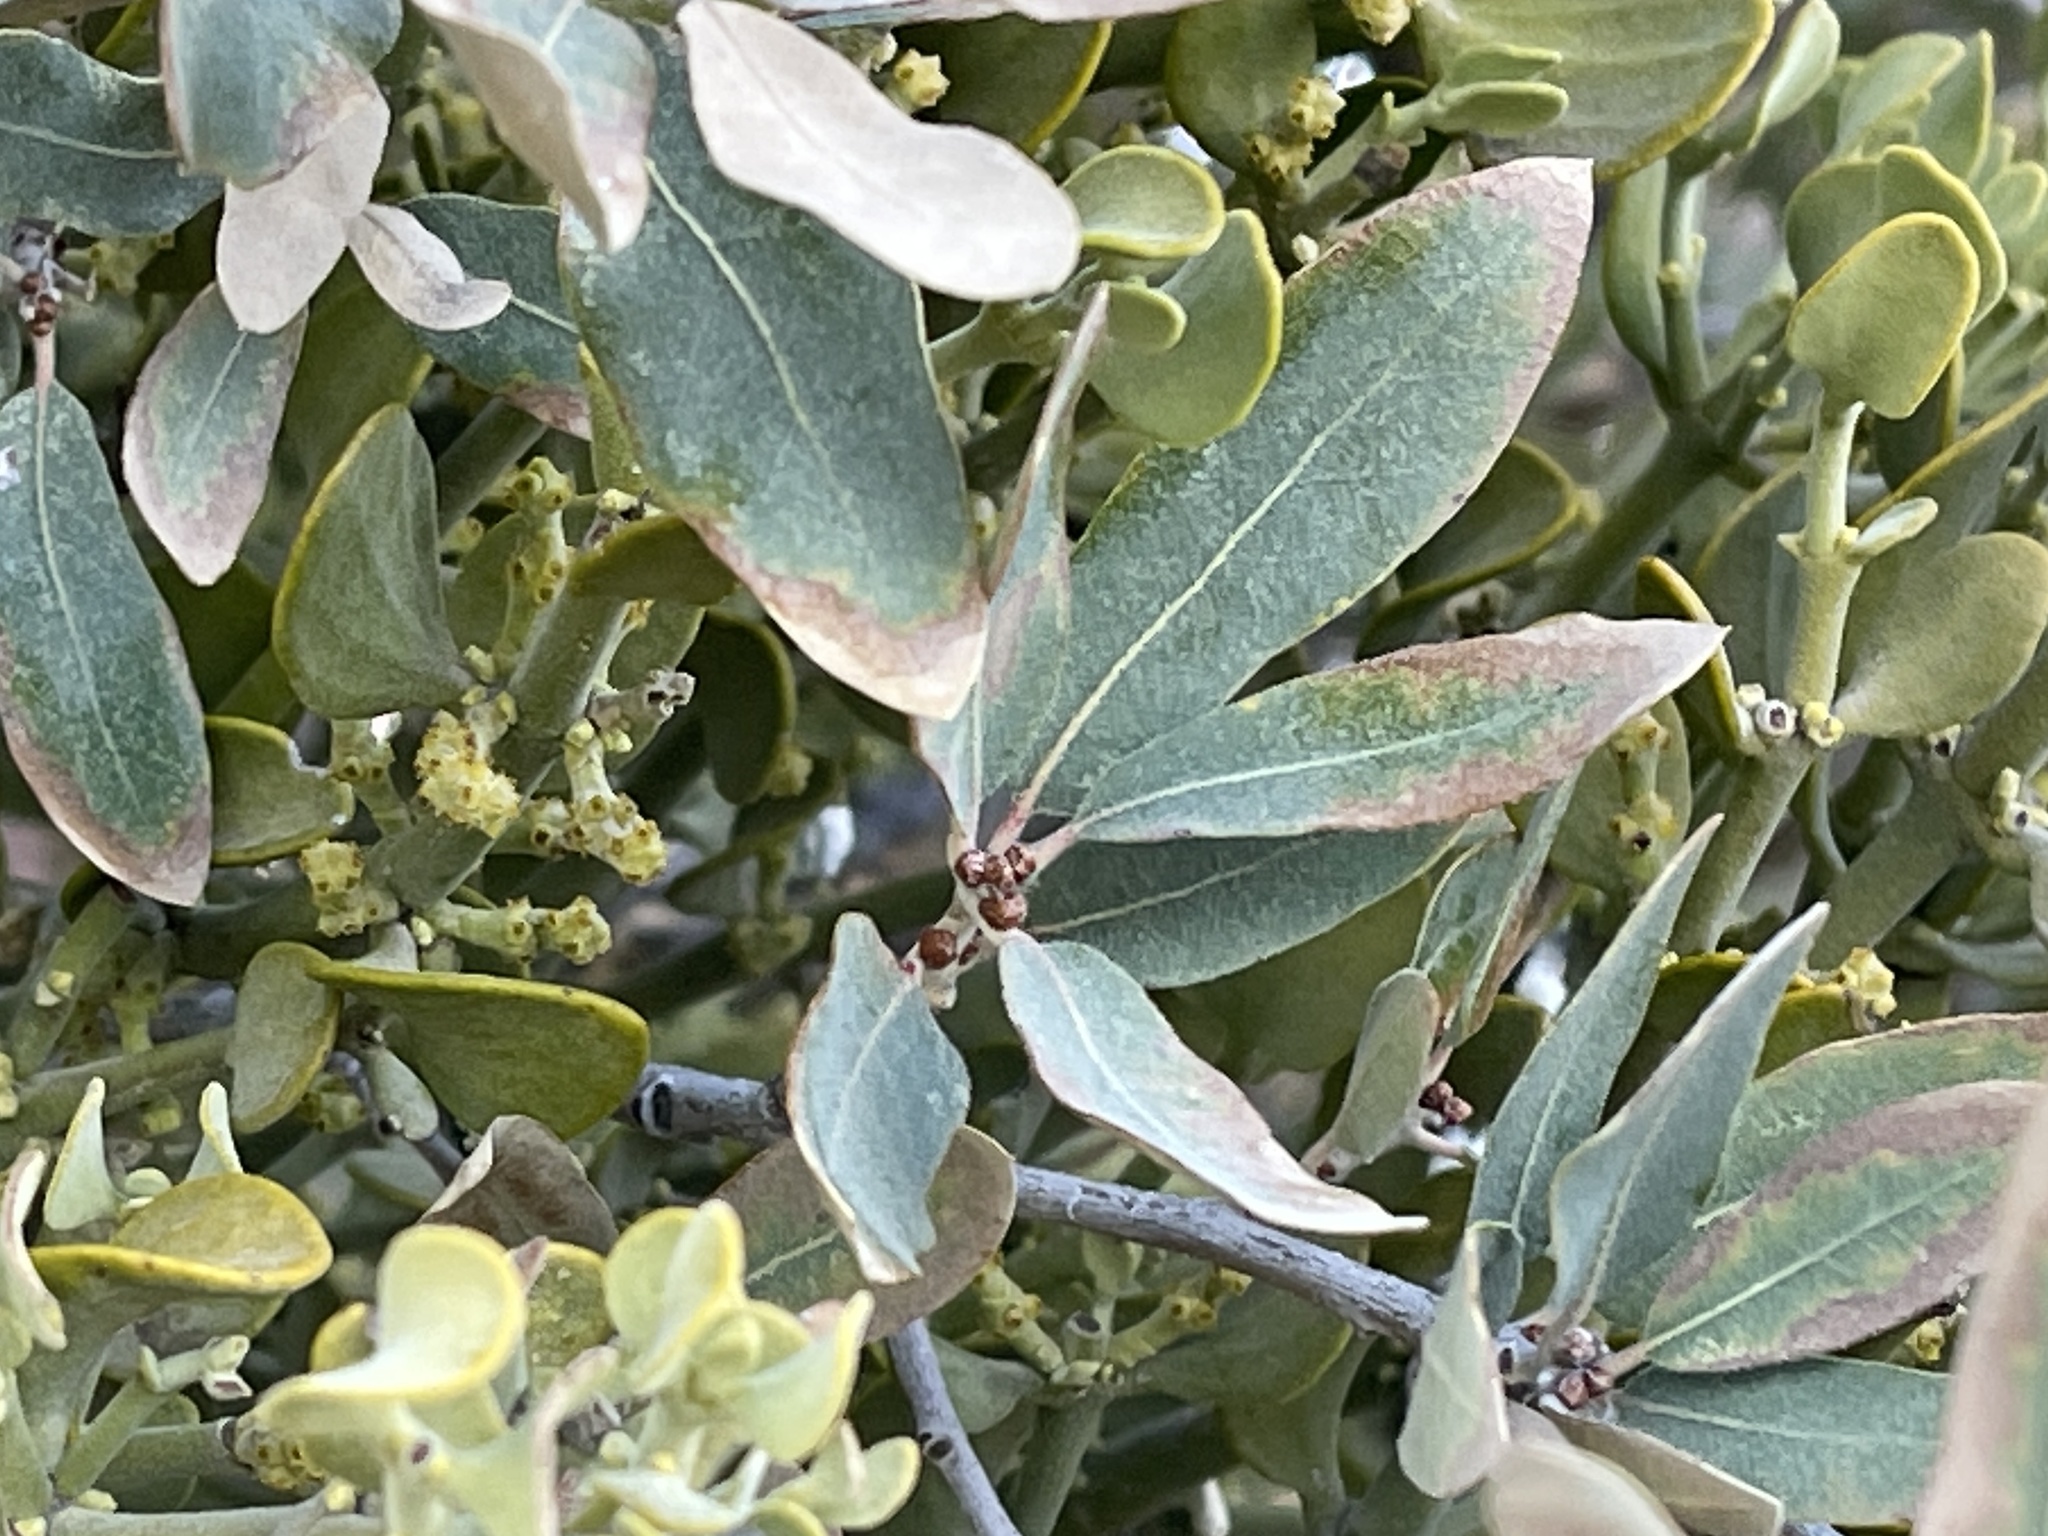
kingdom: Plantae
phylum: Tracheophyta
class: Magnoliopsida
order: Fagales
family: Fagaceae
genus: Quercus
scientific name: Quercus grisea
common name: Gray oak
